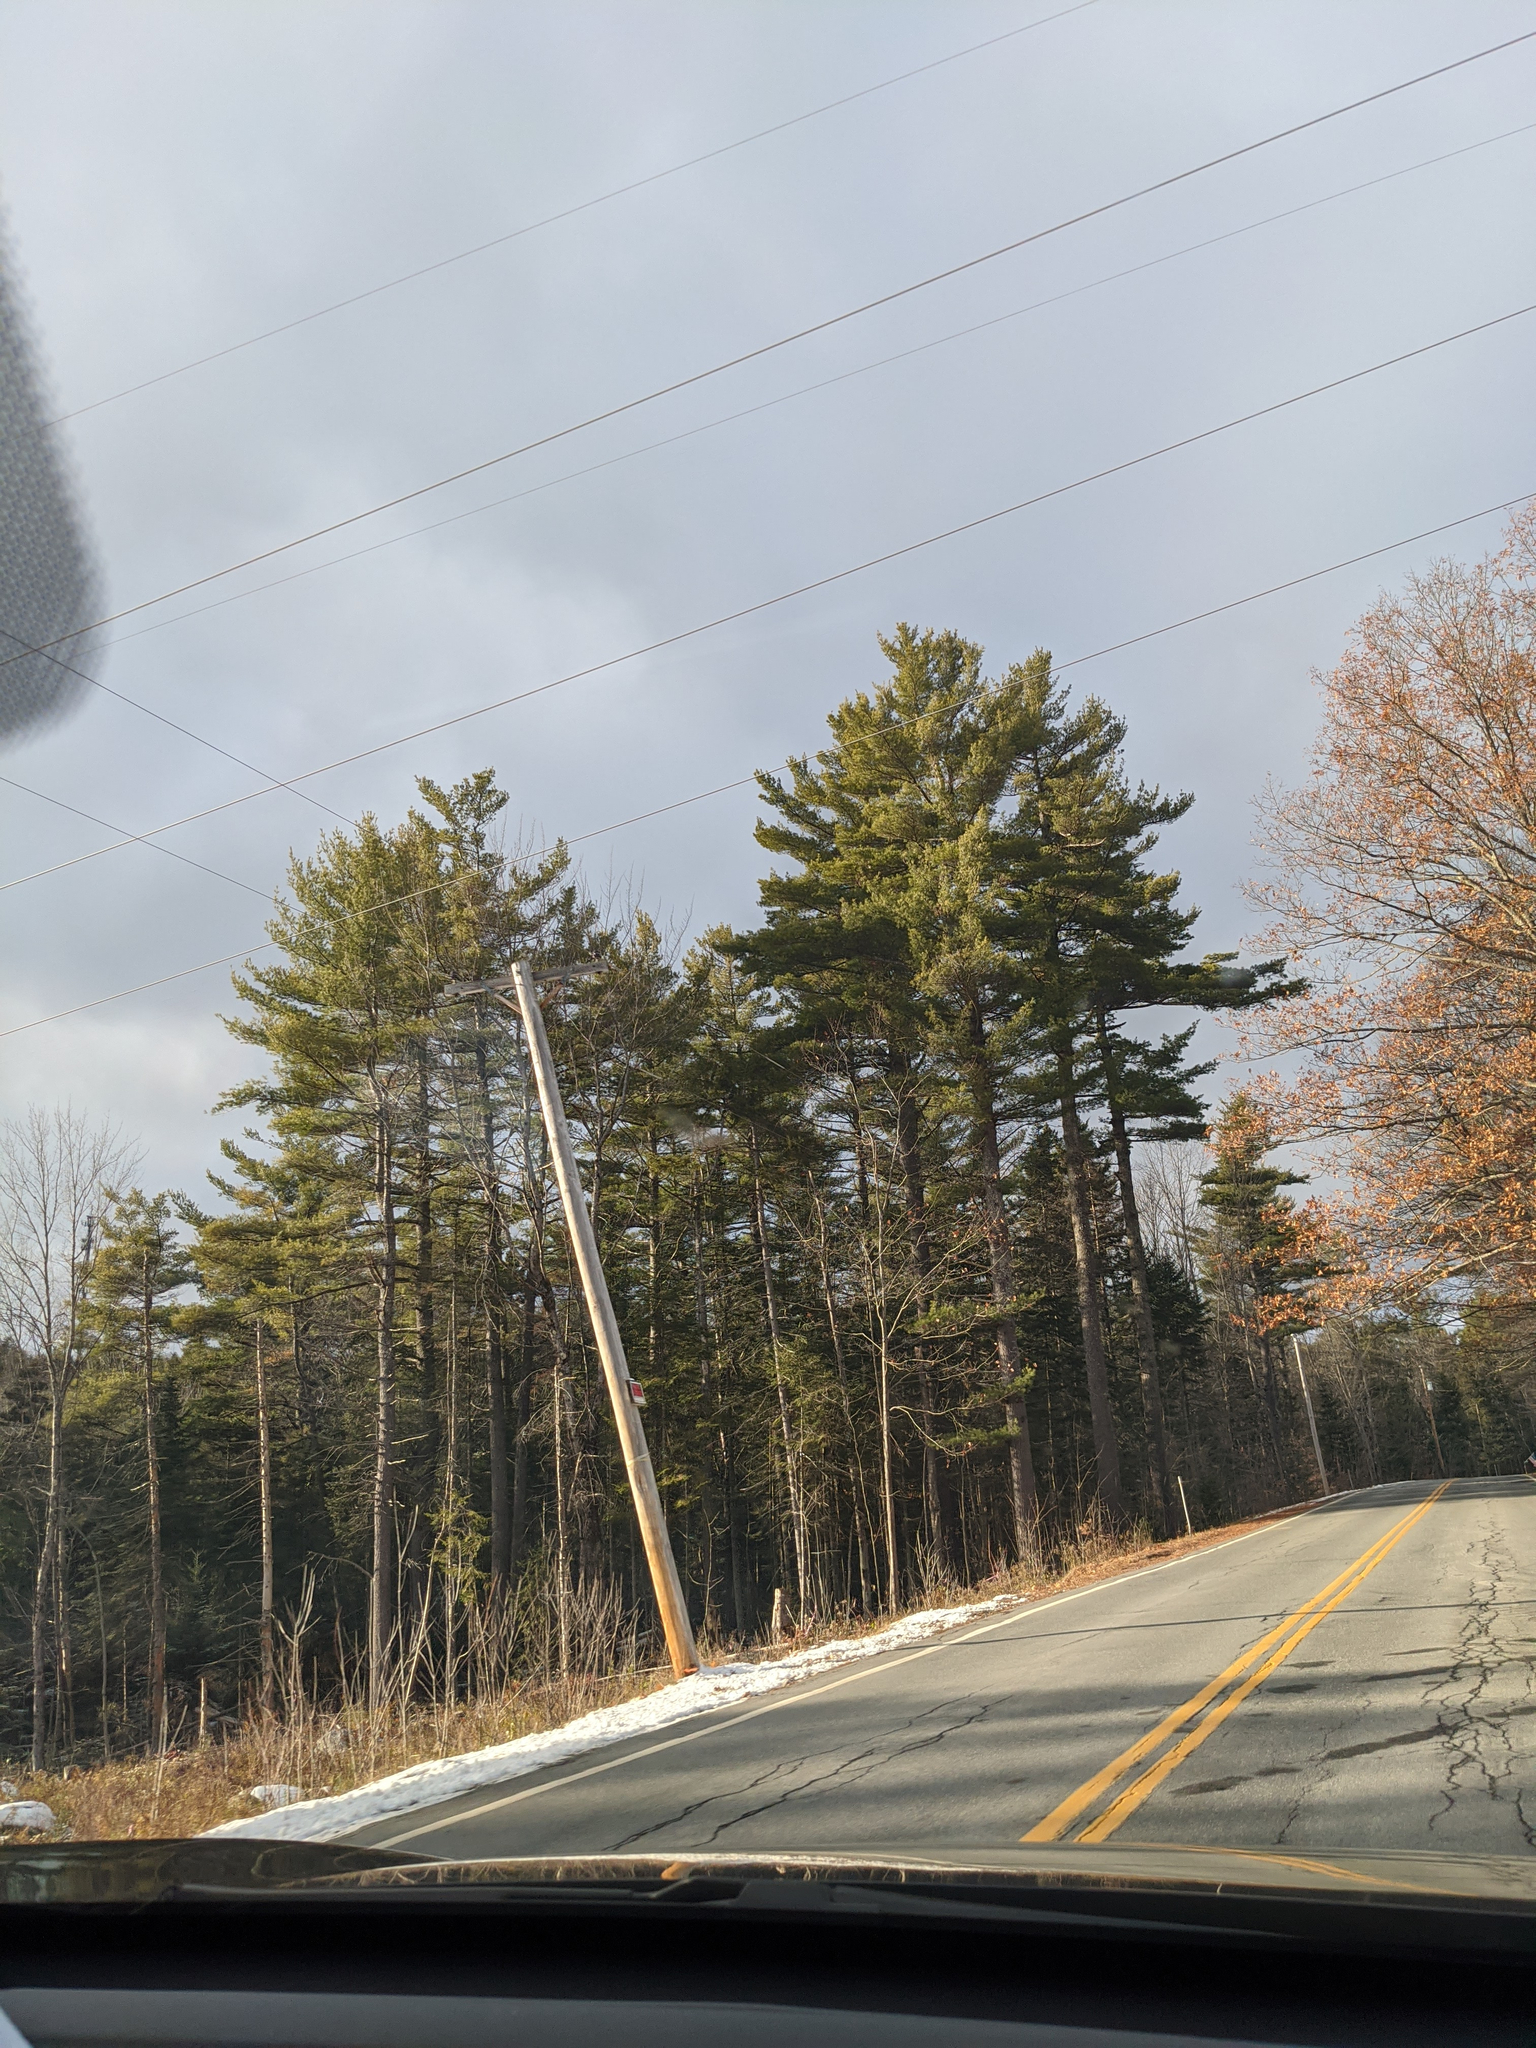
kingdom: Plantae
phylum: Tracheophyta
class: Pinopsida
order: Pinales
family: Pinaceae
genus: Pinus
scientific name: Pinus strobus
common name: Weymouth pine
